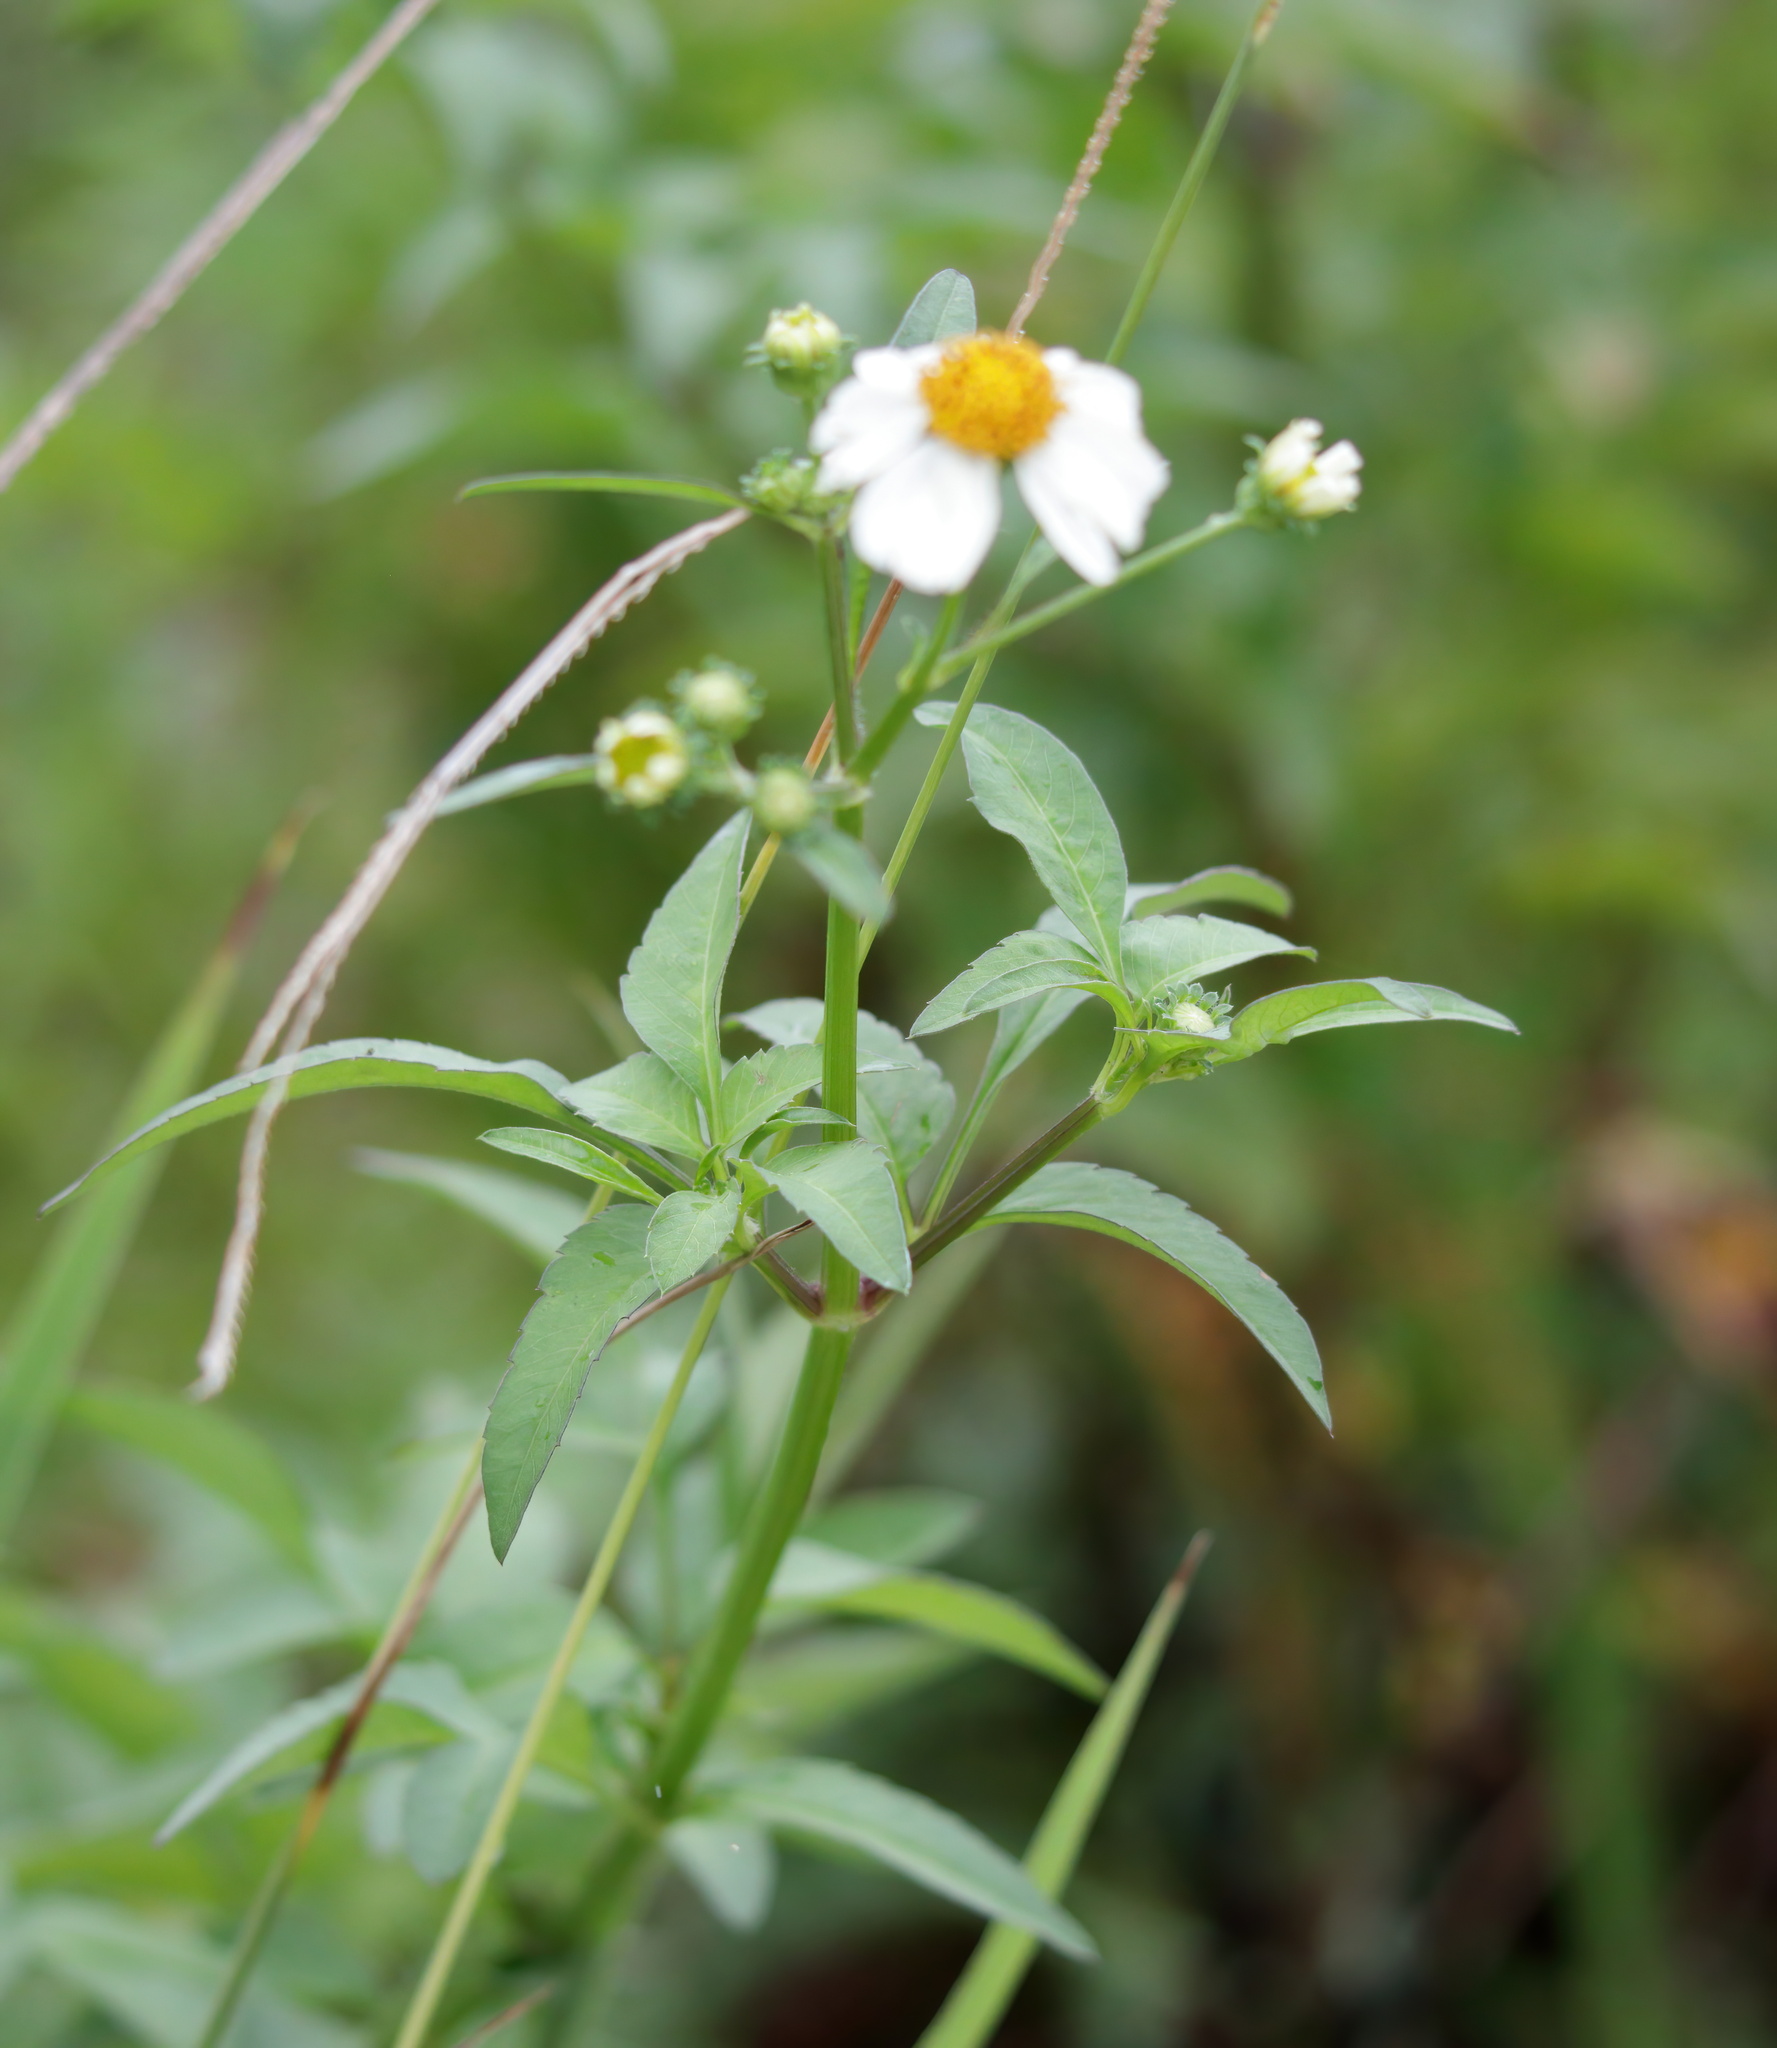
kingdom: Plantae
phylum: Tracheophyta
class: Magnoliopsida
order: Asterales
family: Asteraceae
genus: Bidens
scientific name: Bidens alba
